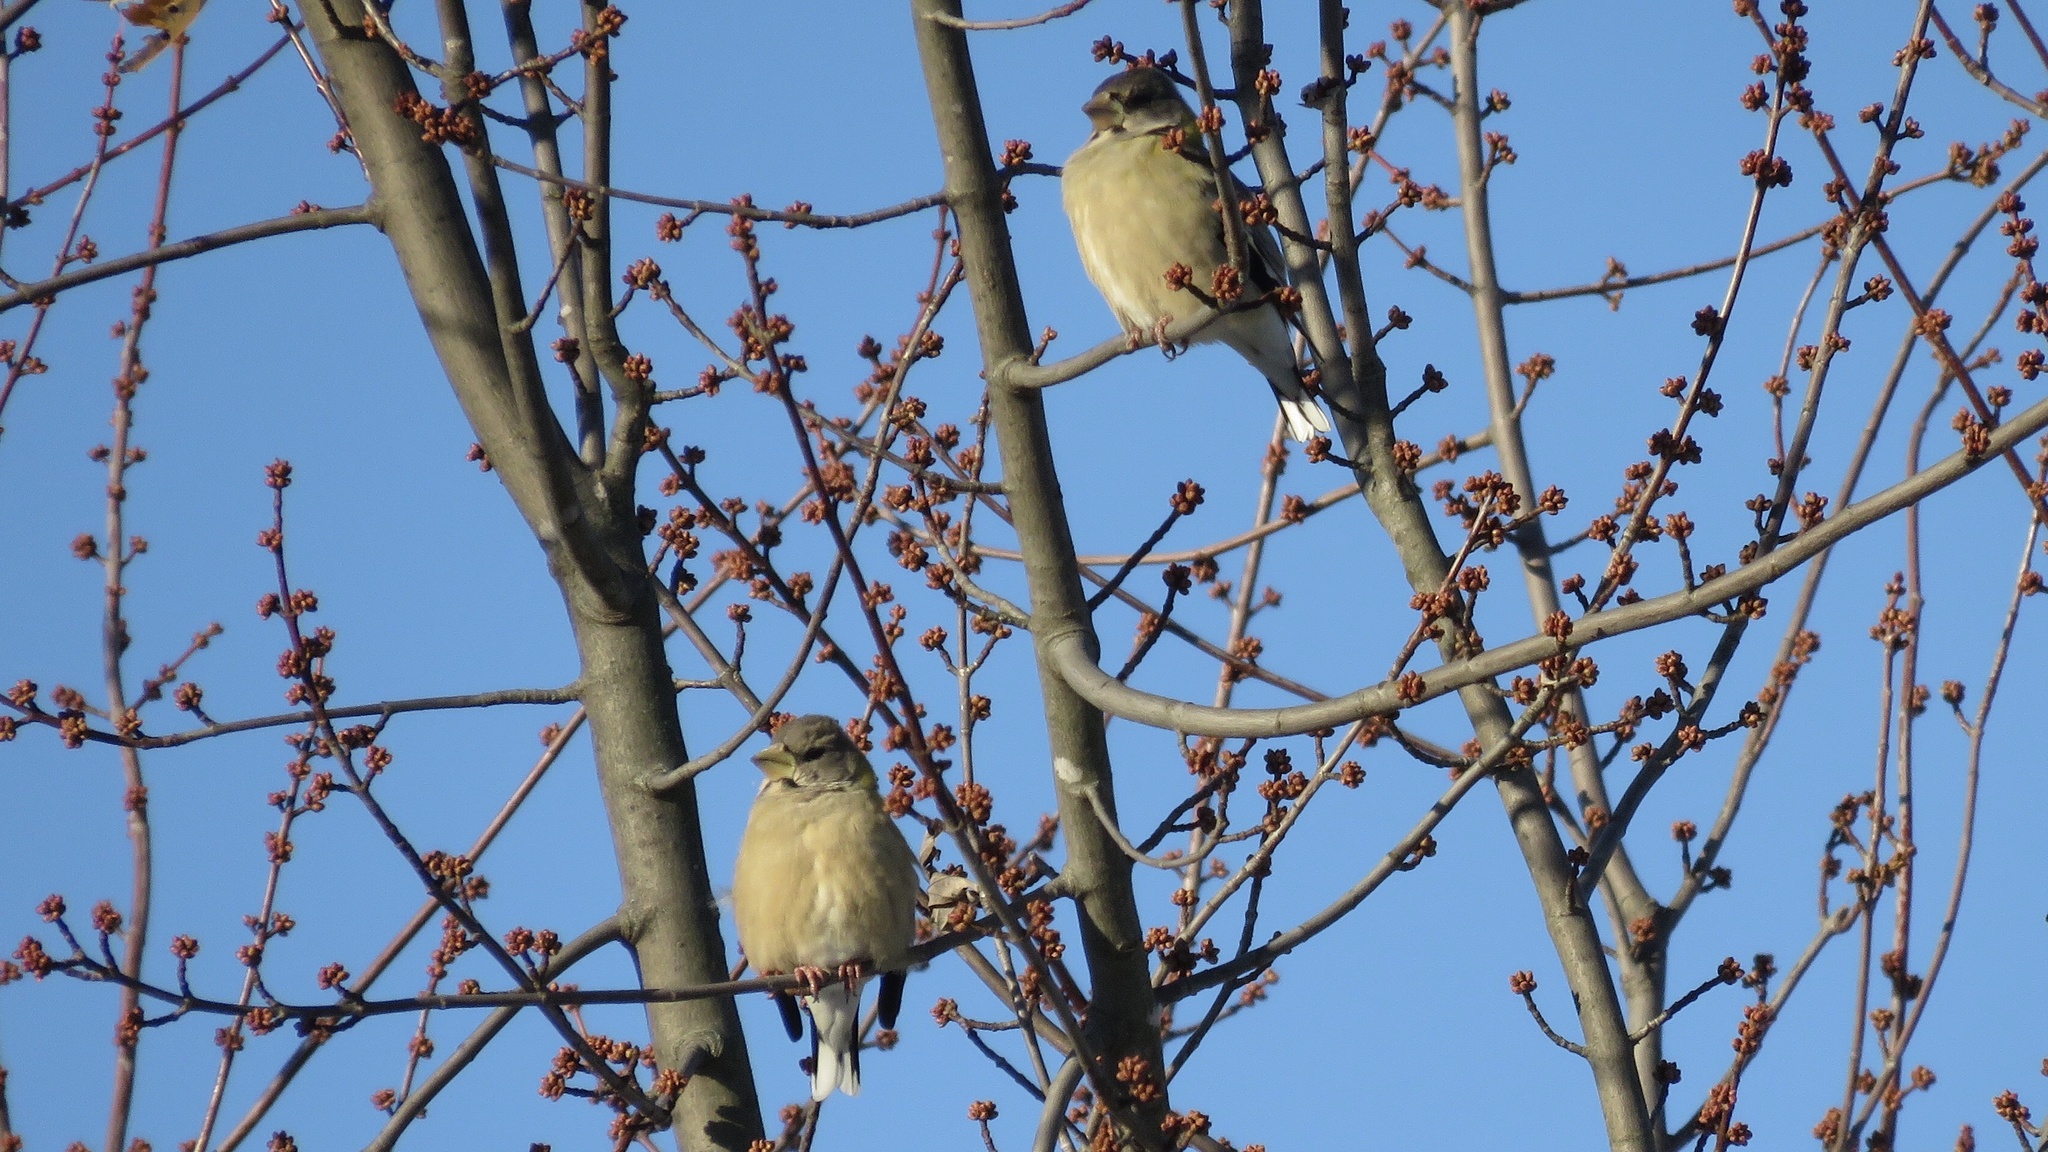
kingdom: Animalia
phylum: Chordata
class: Aves
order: Passeriformes
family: Fringillidae
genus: Hesperiphona
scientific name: Hesperiphona vespertina
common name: Evening grosbeak
